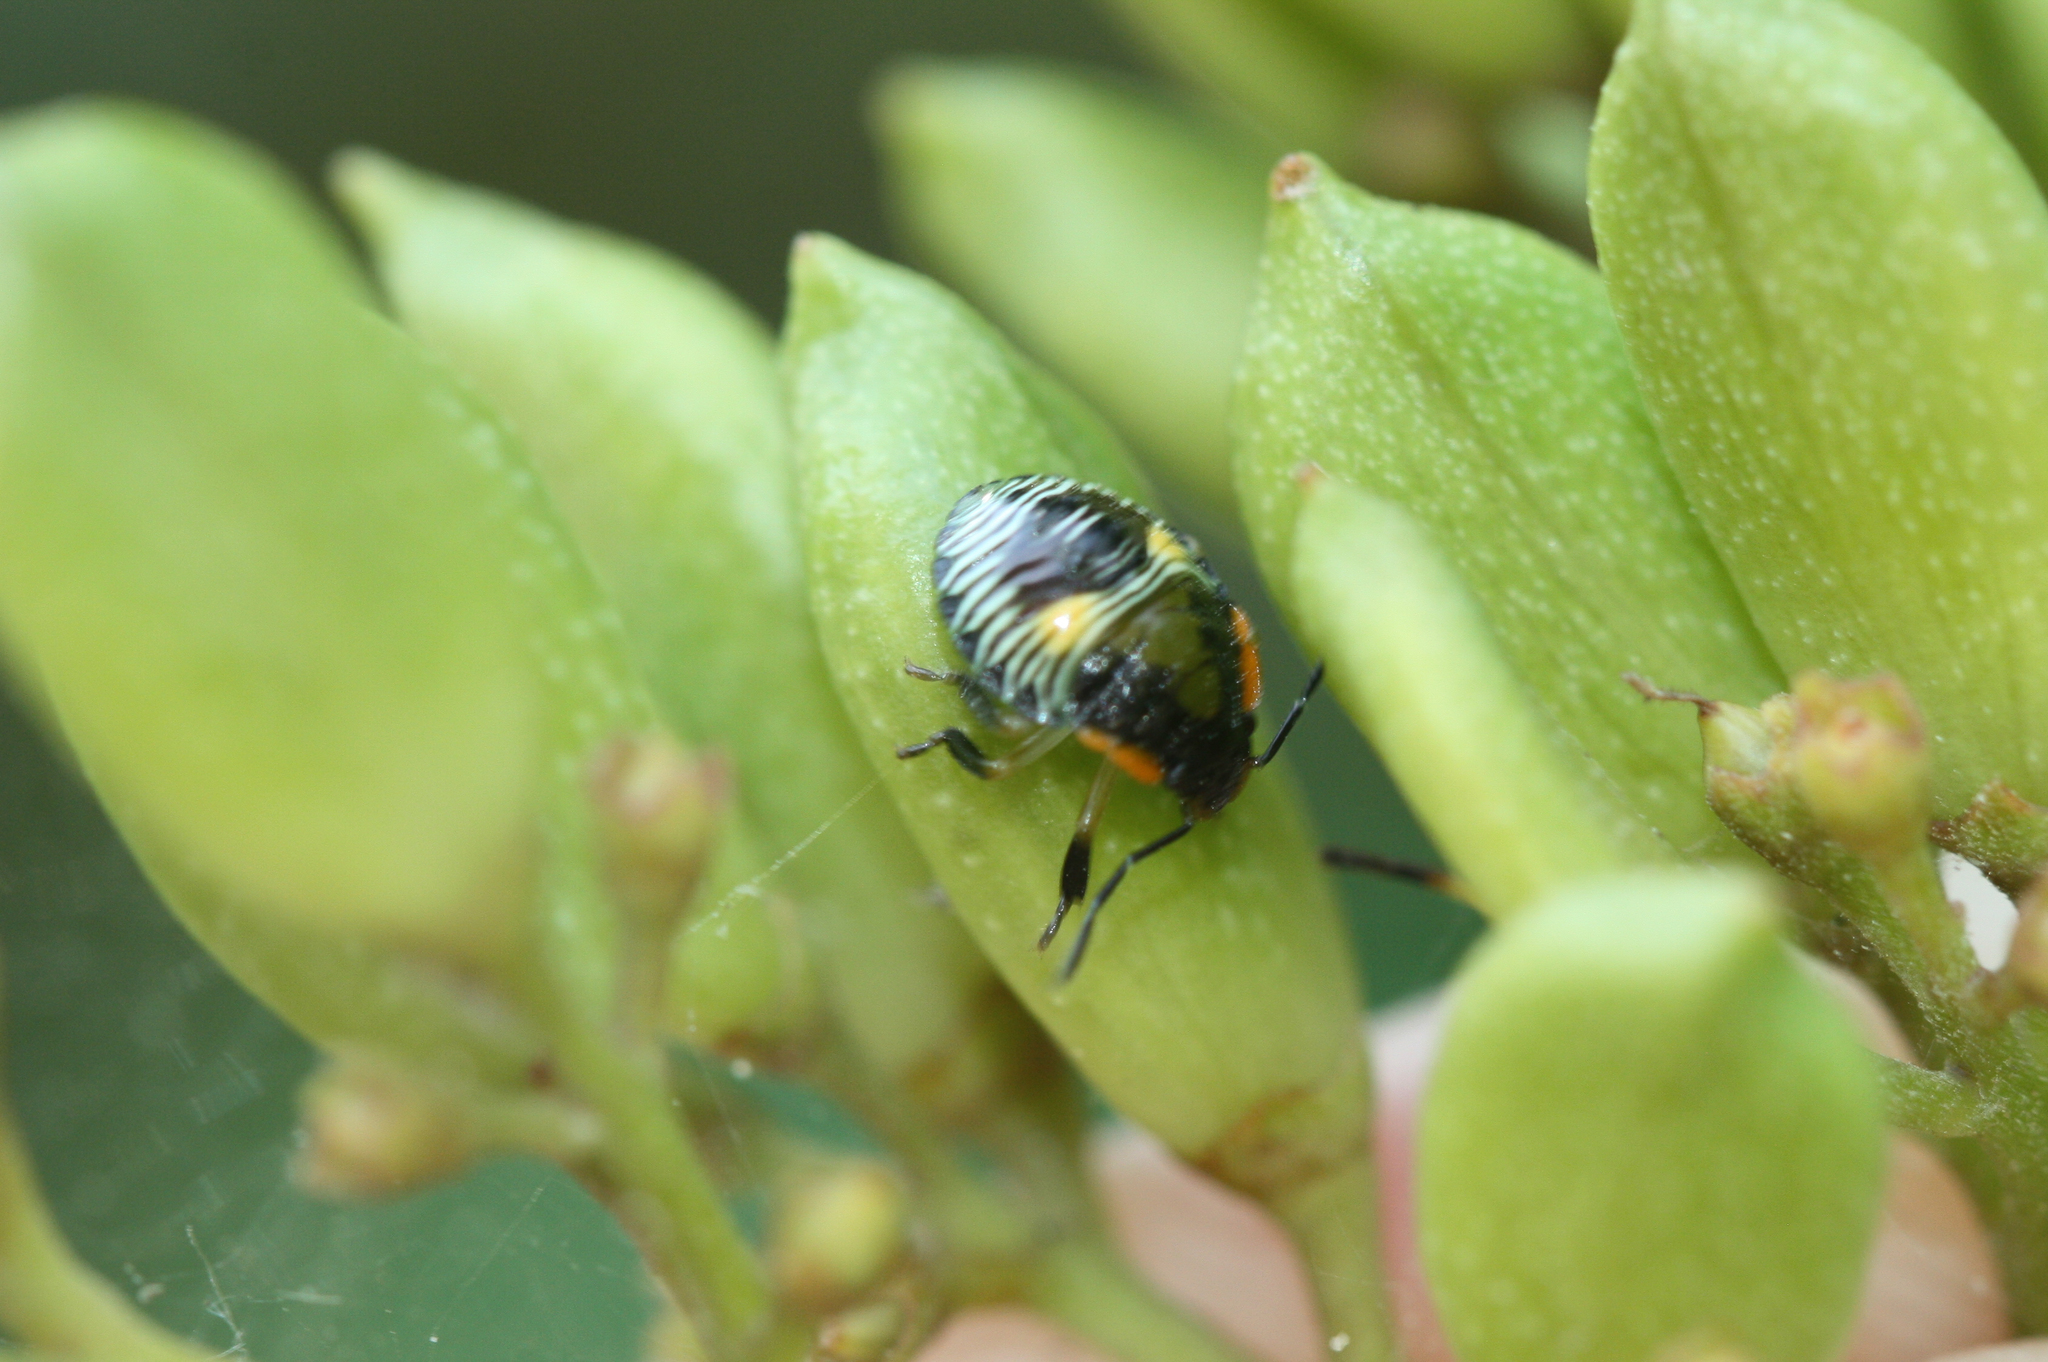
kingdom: Animalia
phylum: Arthropoda
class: Insecta
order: Hemiptera
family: Pentatomidae
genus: Chinavia
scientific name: Chinavia hilaris
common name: Green stink bug
